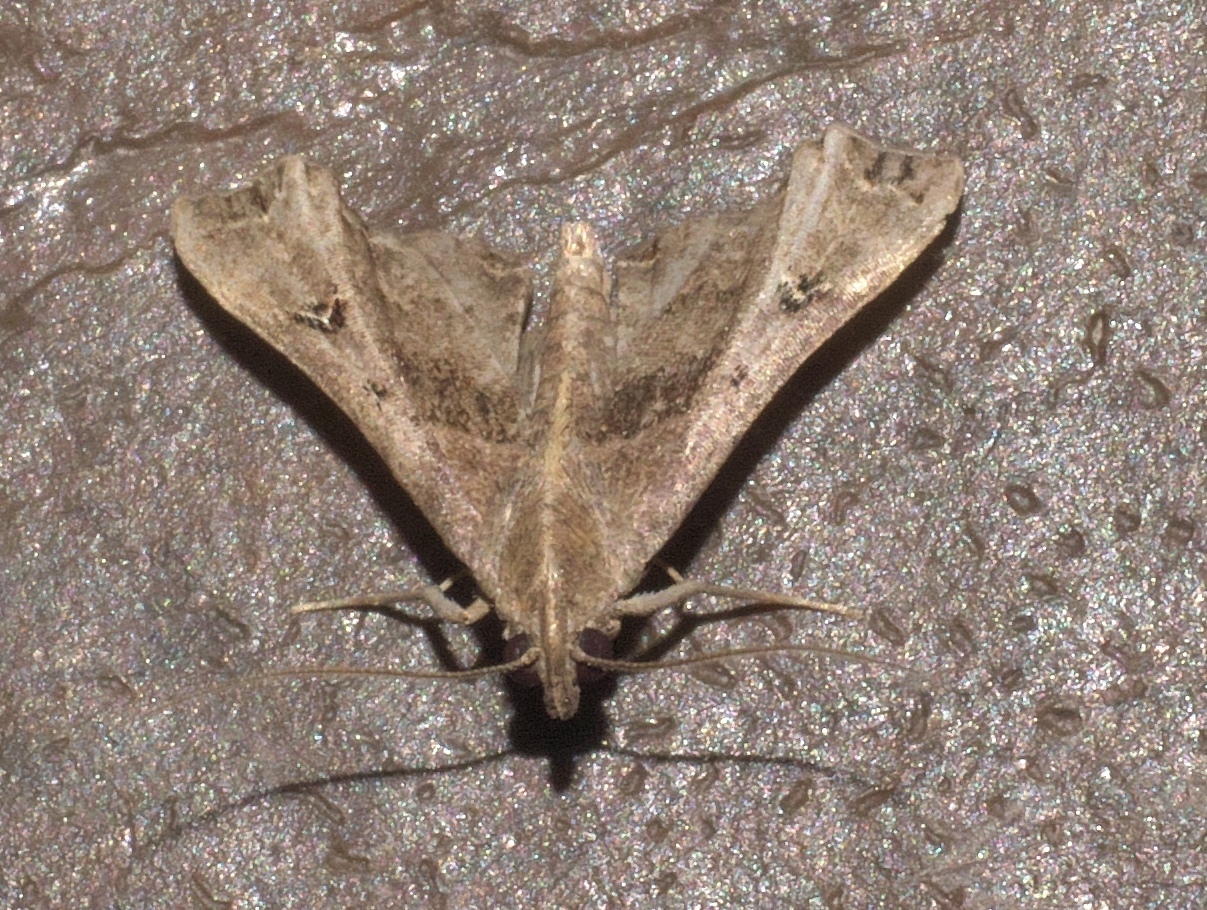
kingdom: Animalia
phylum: Arthropoda
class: Insecta
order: Lepidoptera
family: Erebidae
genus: Palthis
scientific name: Palthis asopialis
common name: Faint-spotted palthis moth
